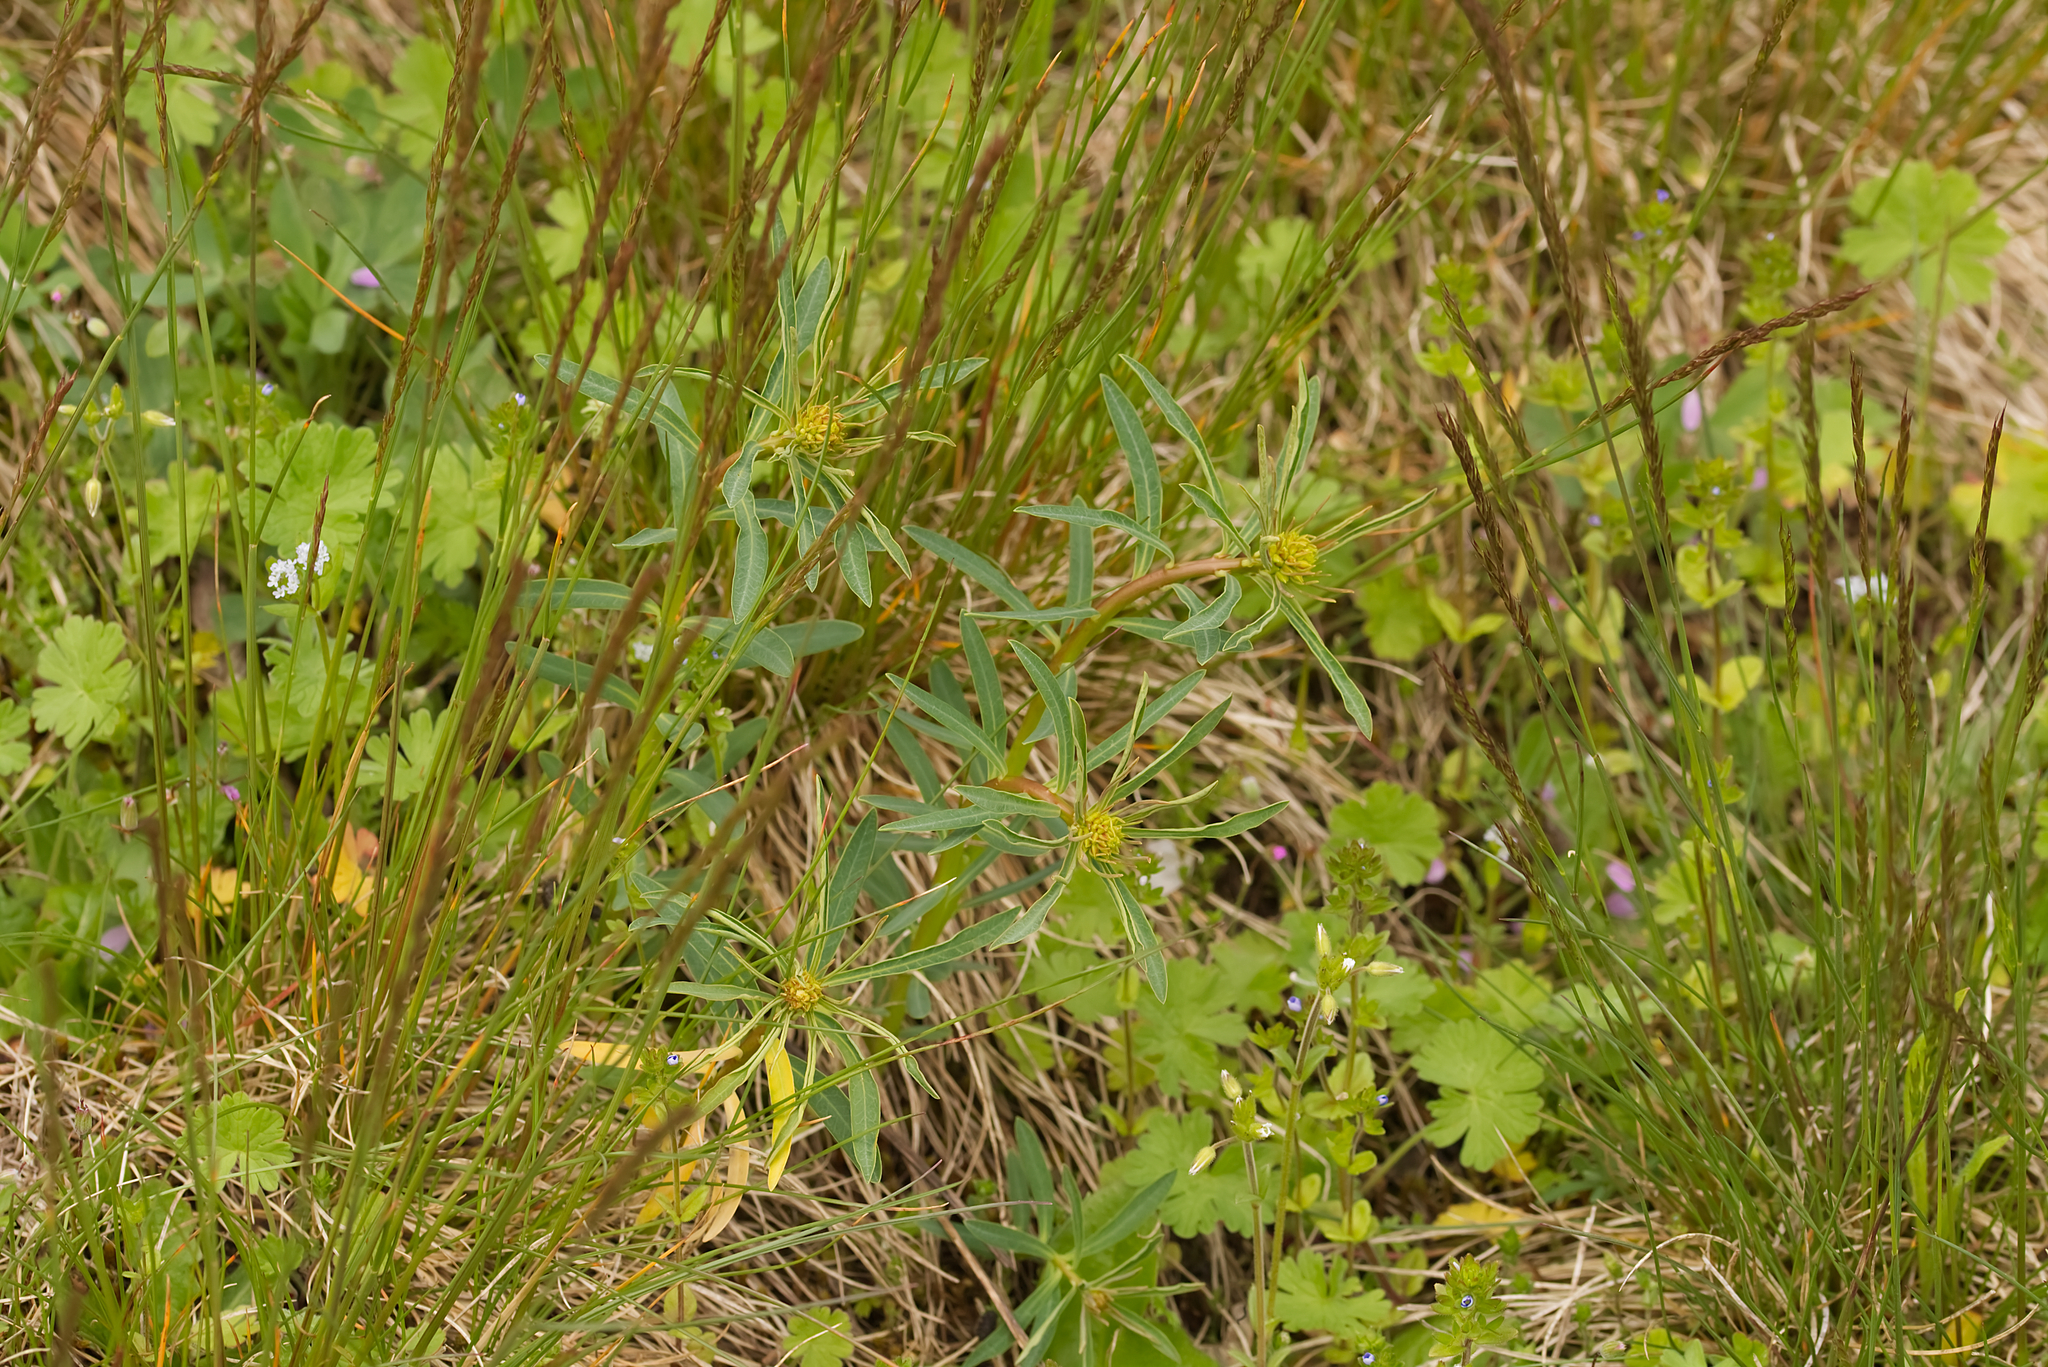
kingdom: Plantae
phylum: Tracheophyta
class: Magnoliopsida
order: Malpighiales
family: Euphorbiaceae
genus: Euphorbia
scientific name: Euphorbia esula
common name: Leafy spurge
